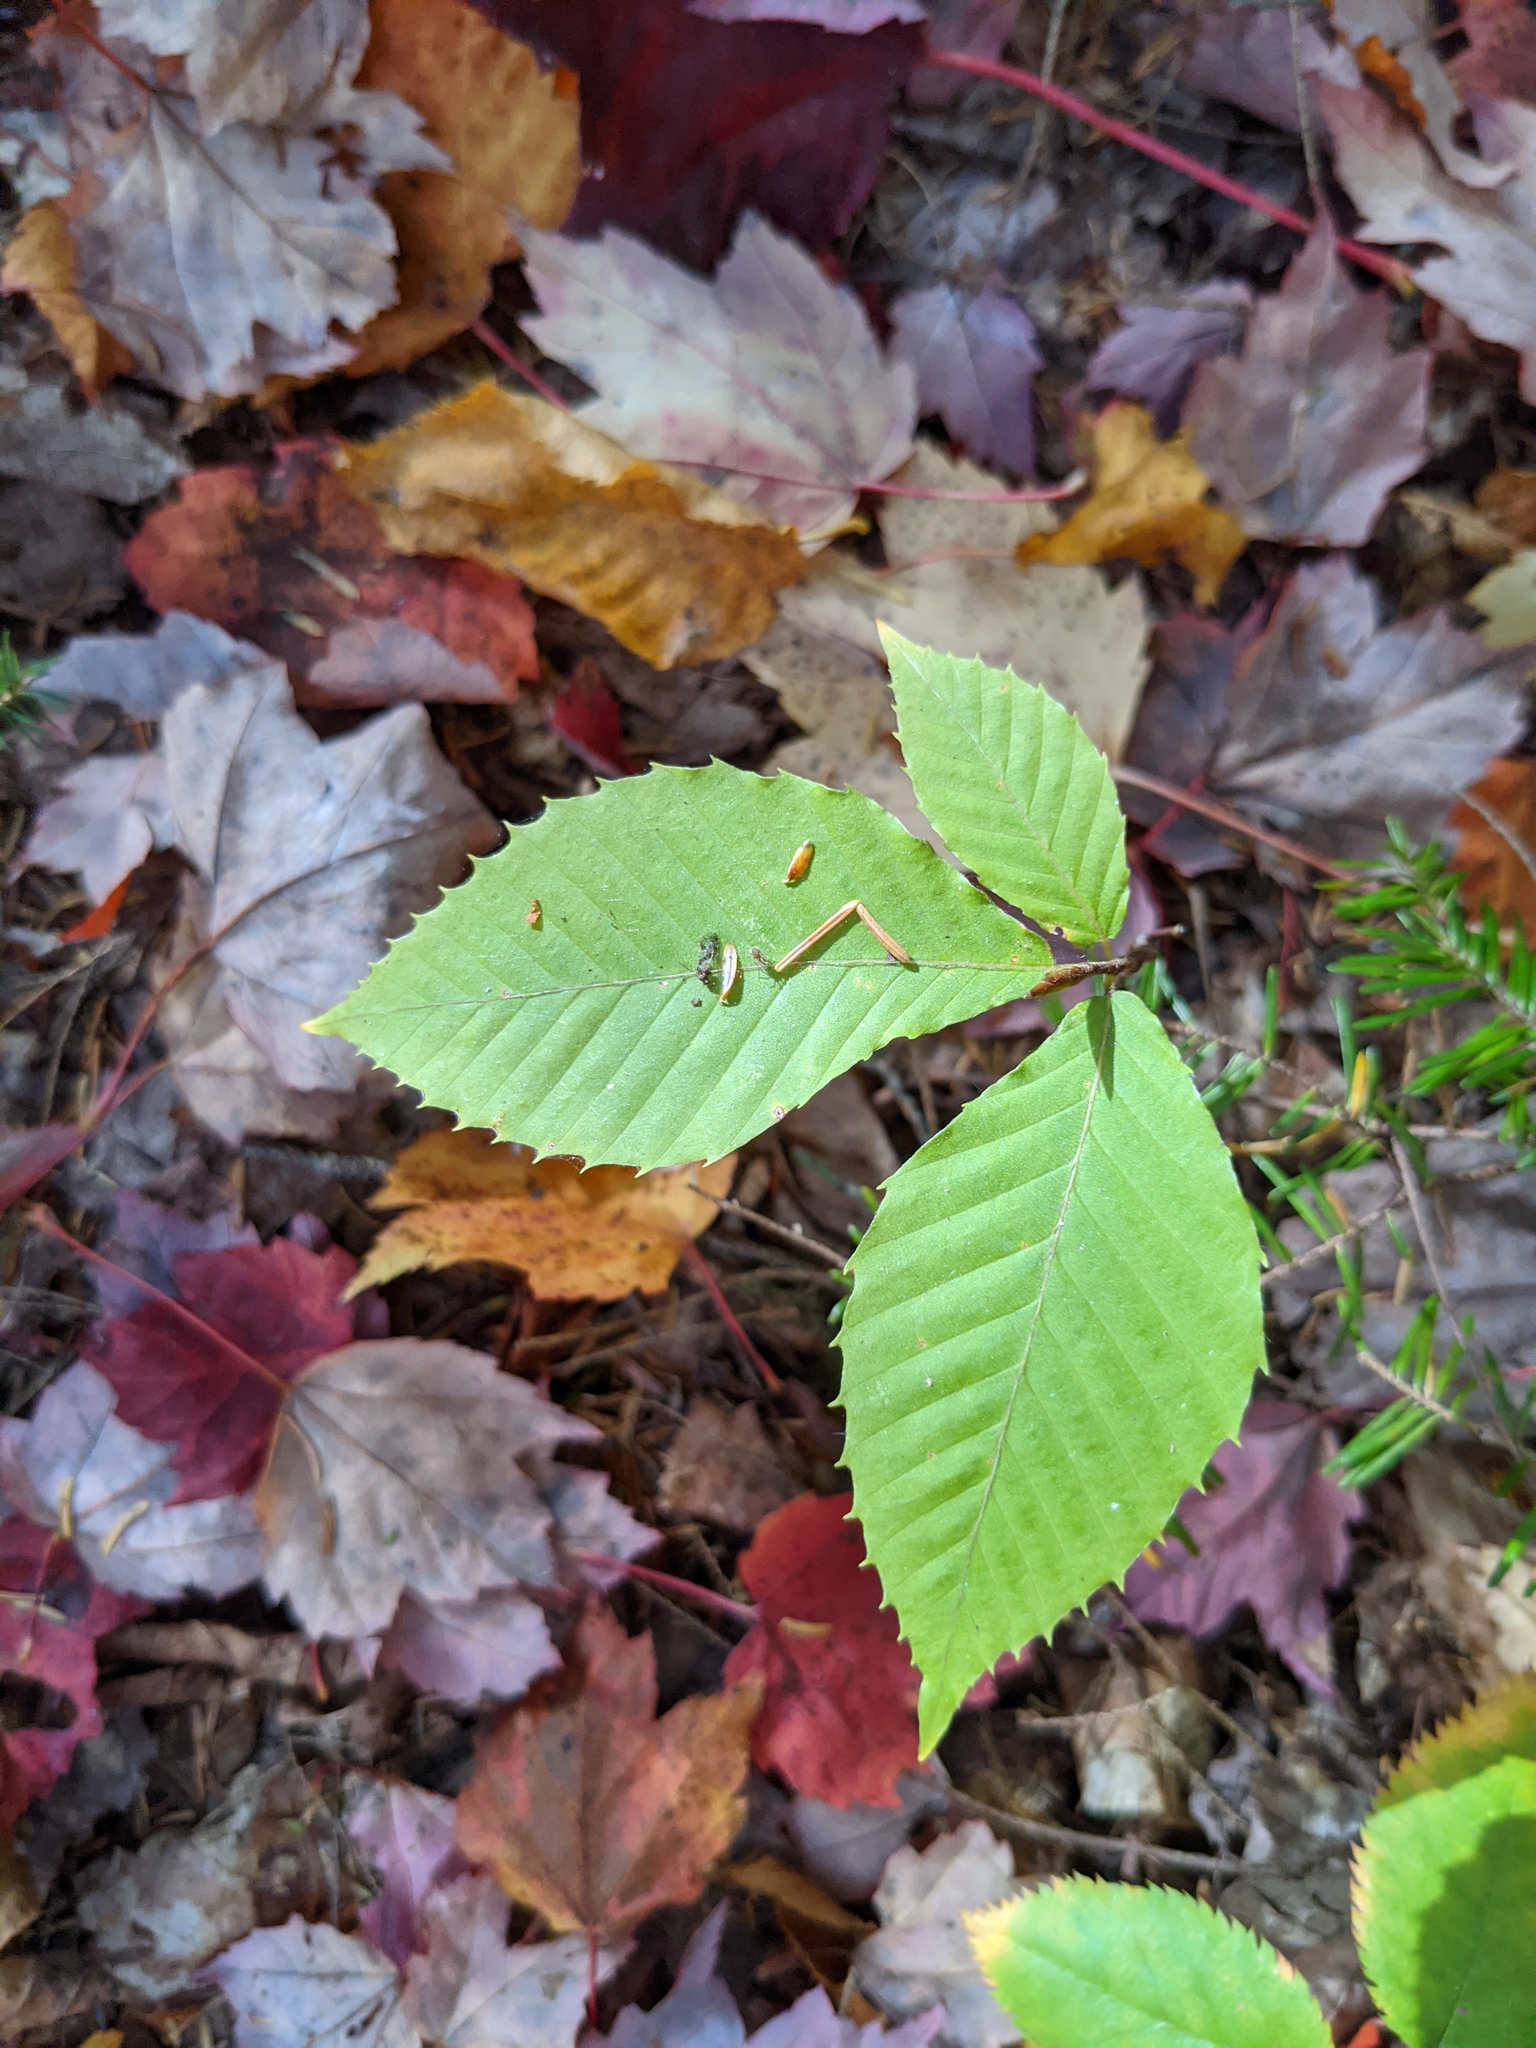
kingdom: Plantae
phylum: Tracheophyta
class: Magnoliopsida
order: Fagales
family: Fagaceae
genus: Fagus
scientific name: Fagus grandifolia
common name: American beech
